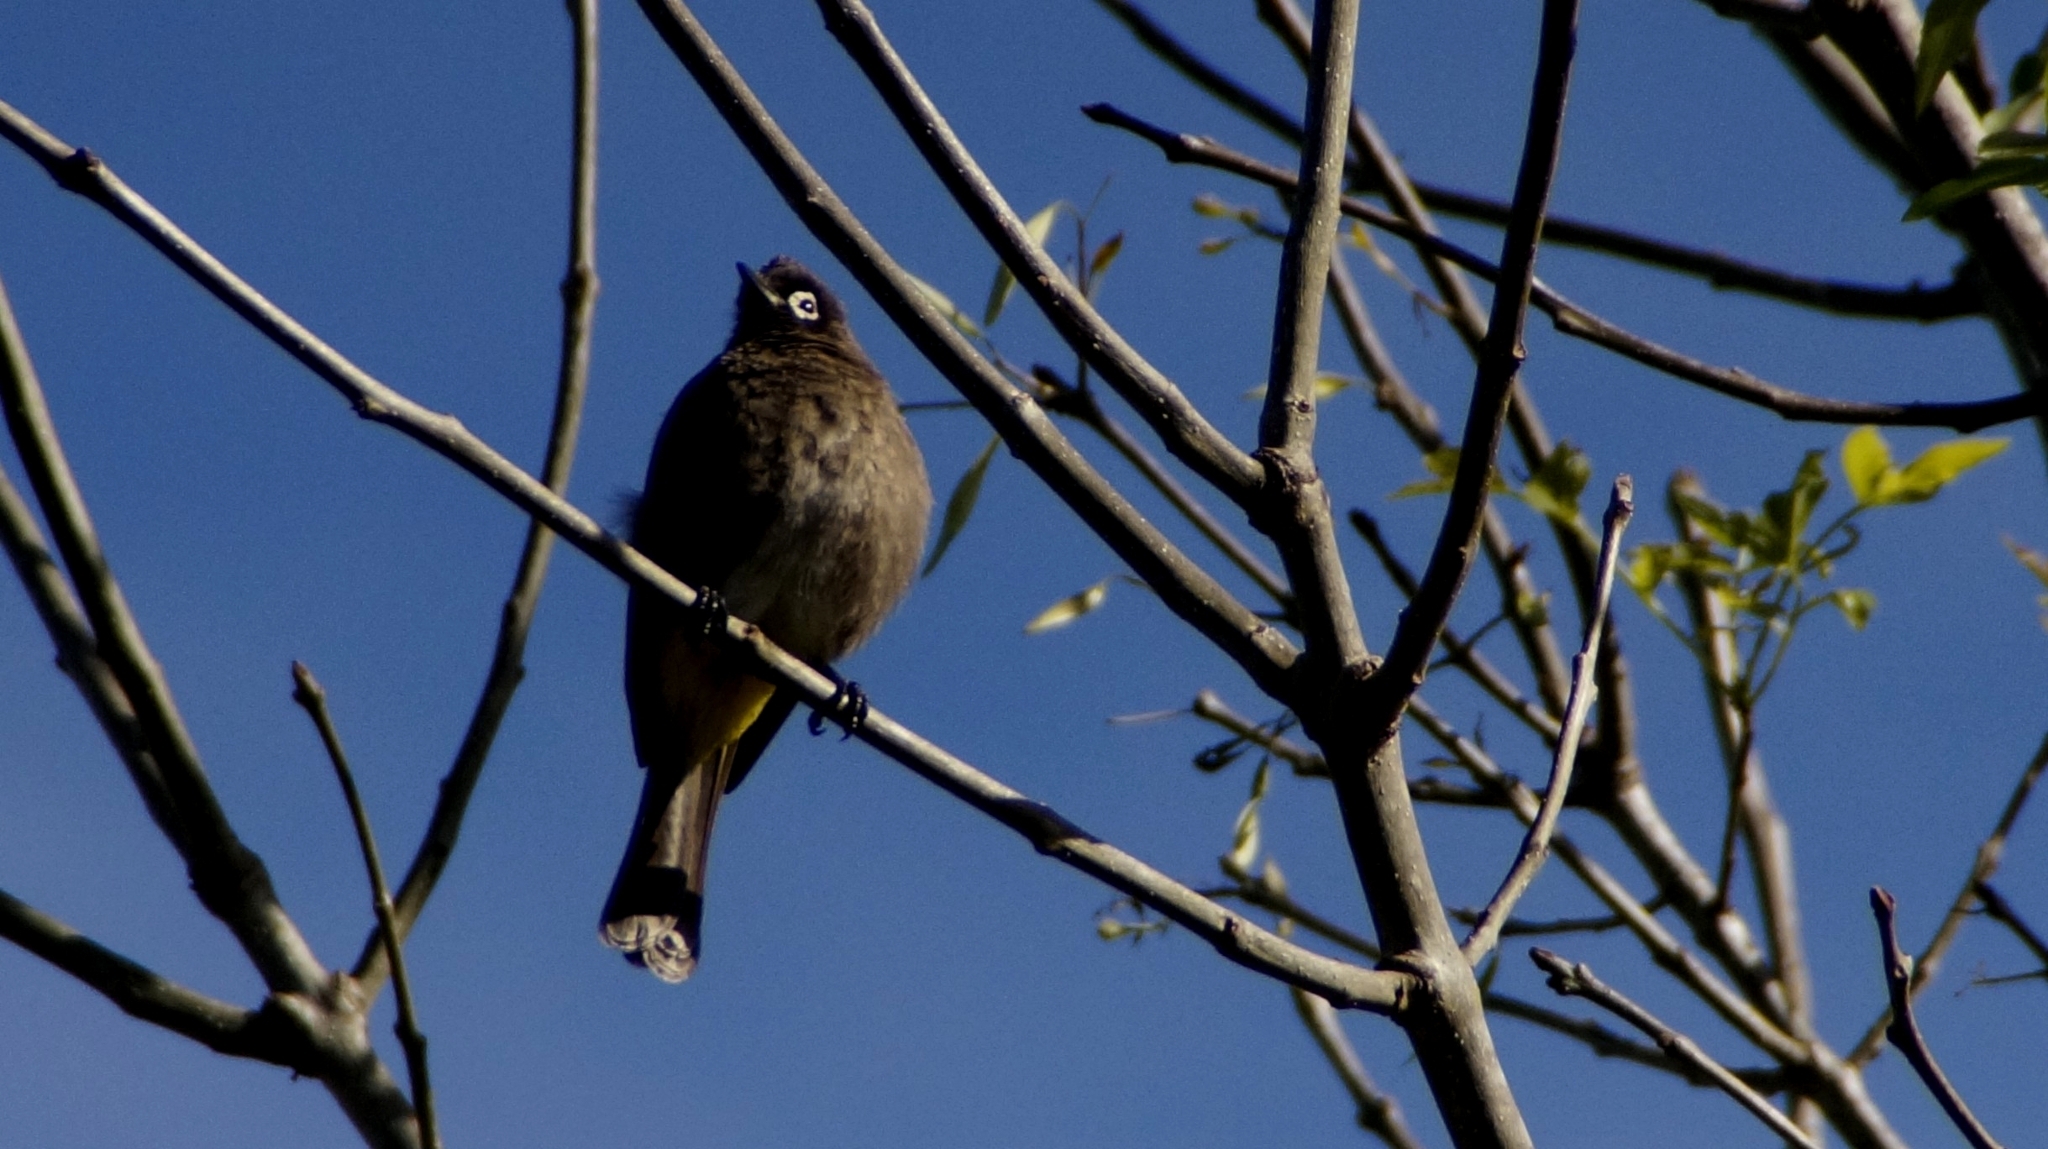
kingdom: Animalia
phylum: Chordata
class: Aves
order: Passeriformes
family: Pycnonotidae
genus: Pycnonotus
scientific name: Pycnonotus capensis
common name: Cape bulbul
